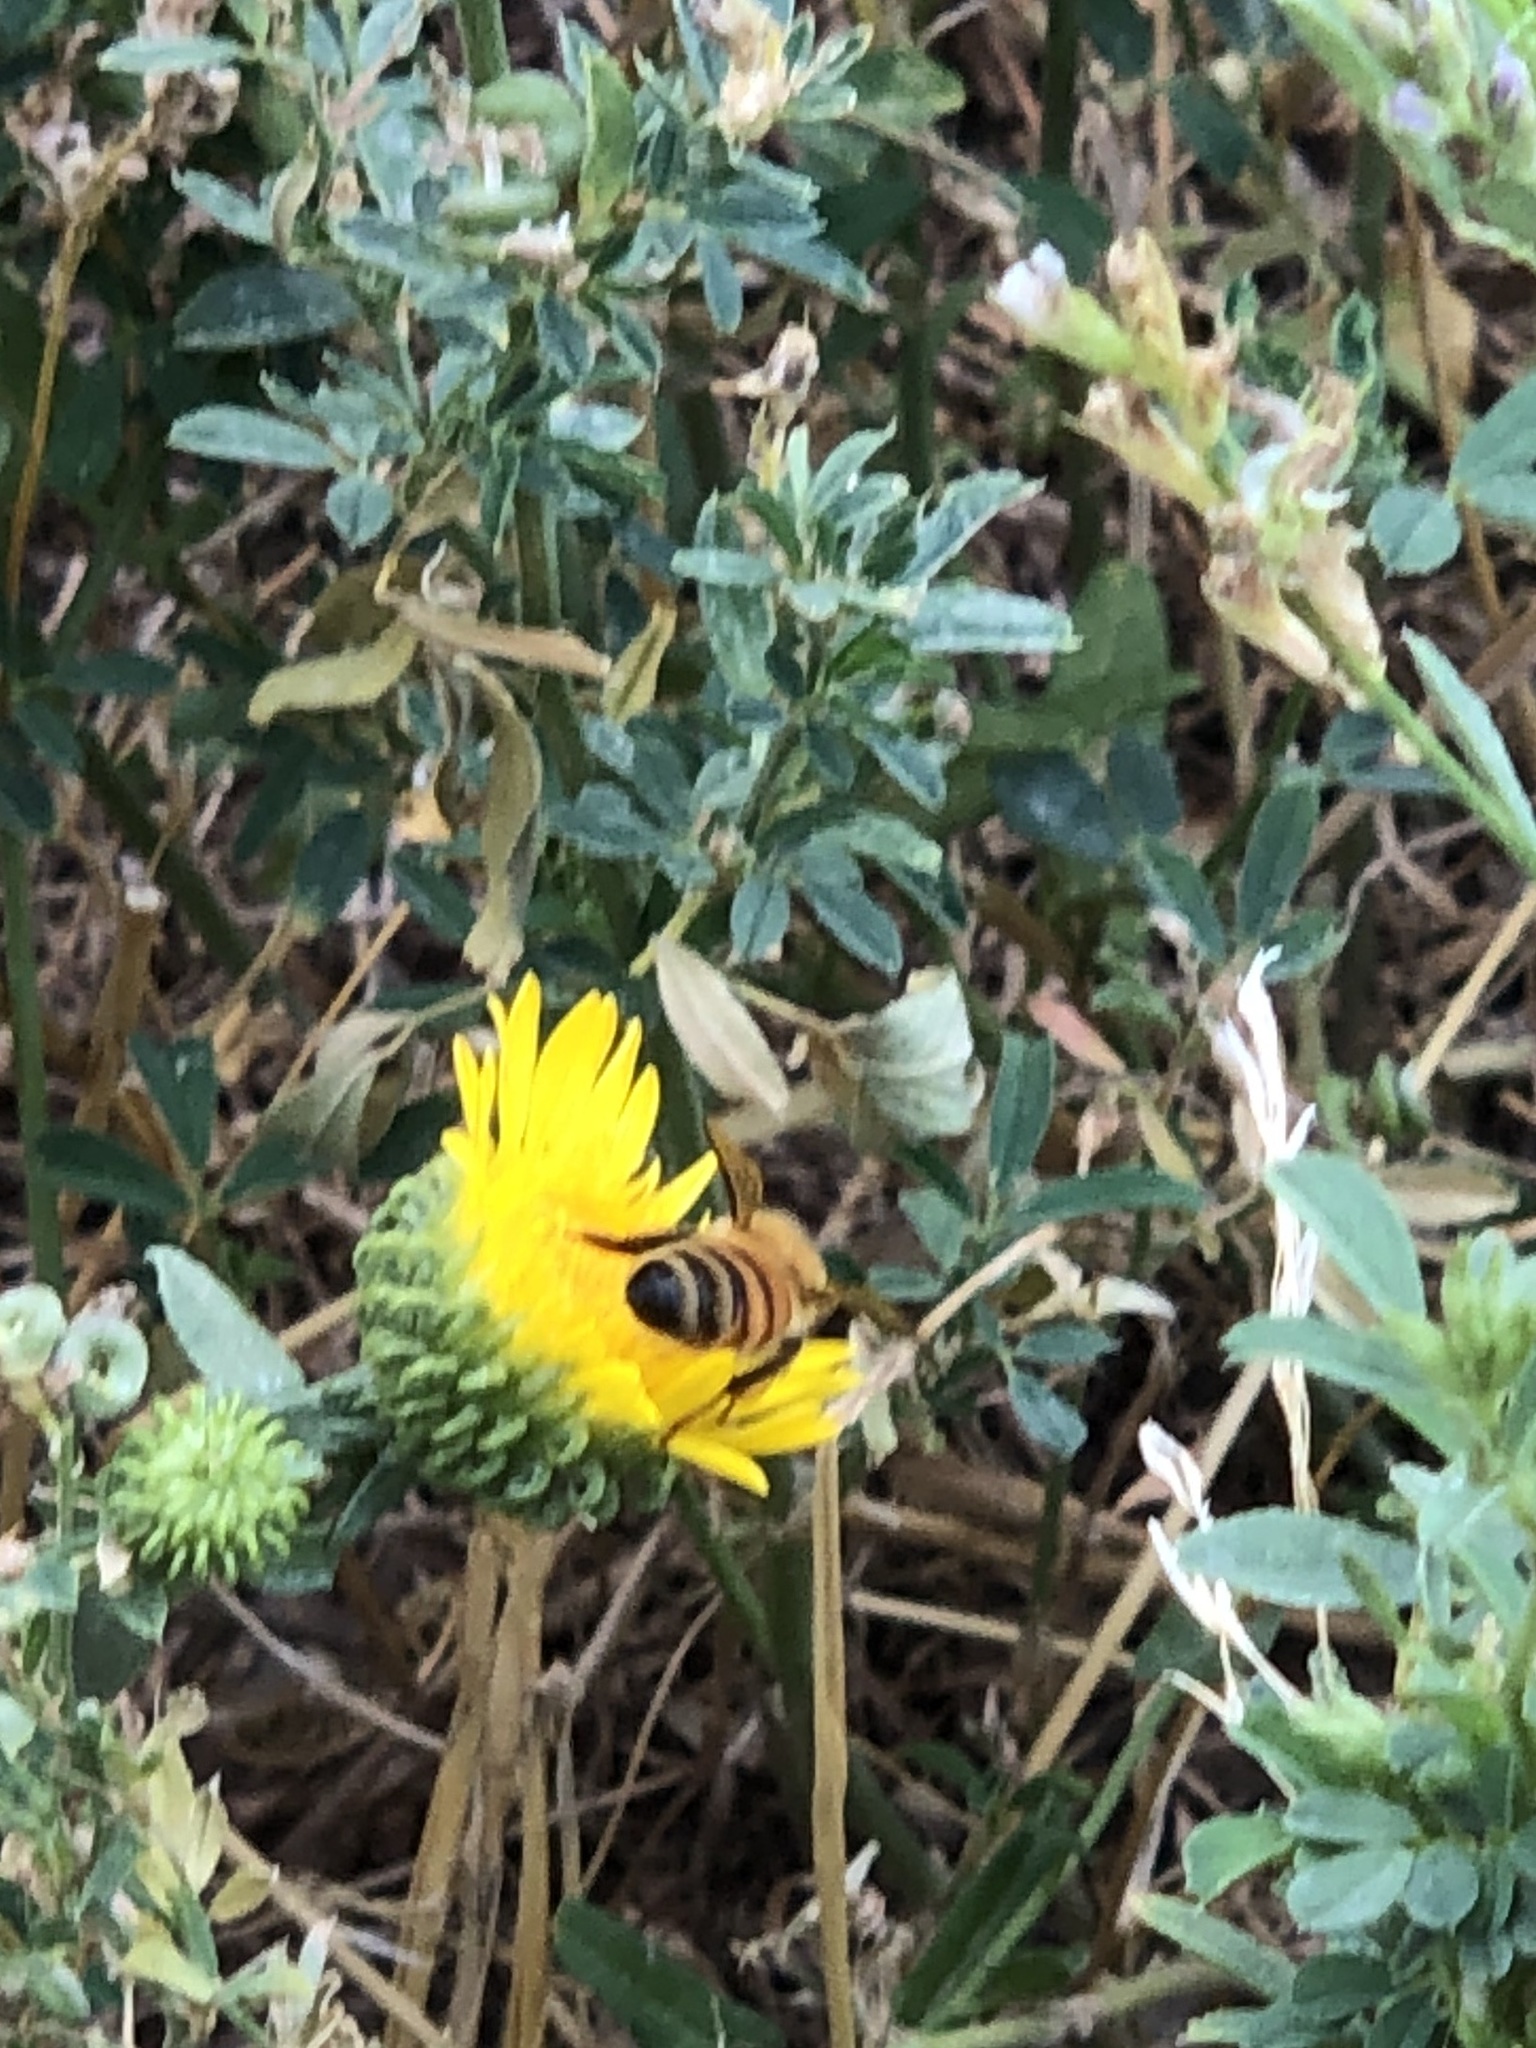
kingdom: Animalia
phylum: Arthropoda
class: Insecta
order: Hymenoptera
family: Apidae
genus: Apis
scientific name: Apis mellifera
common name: Honey bee
